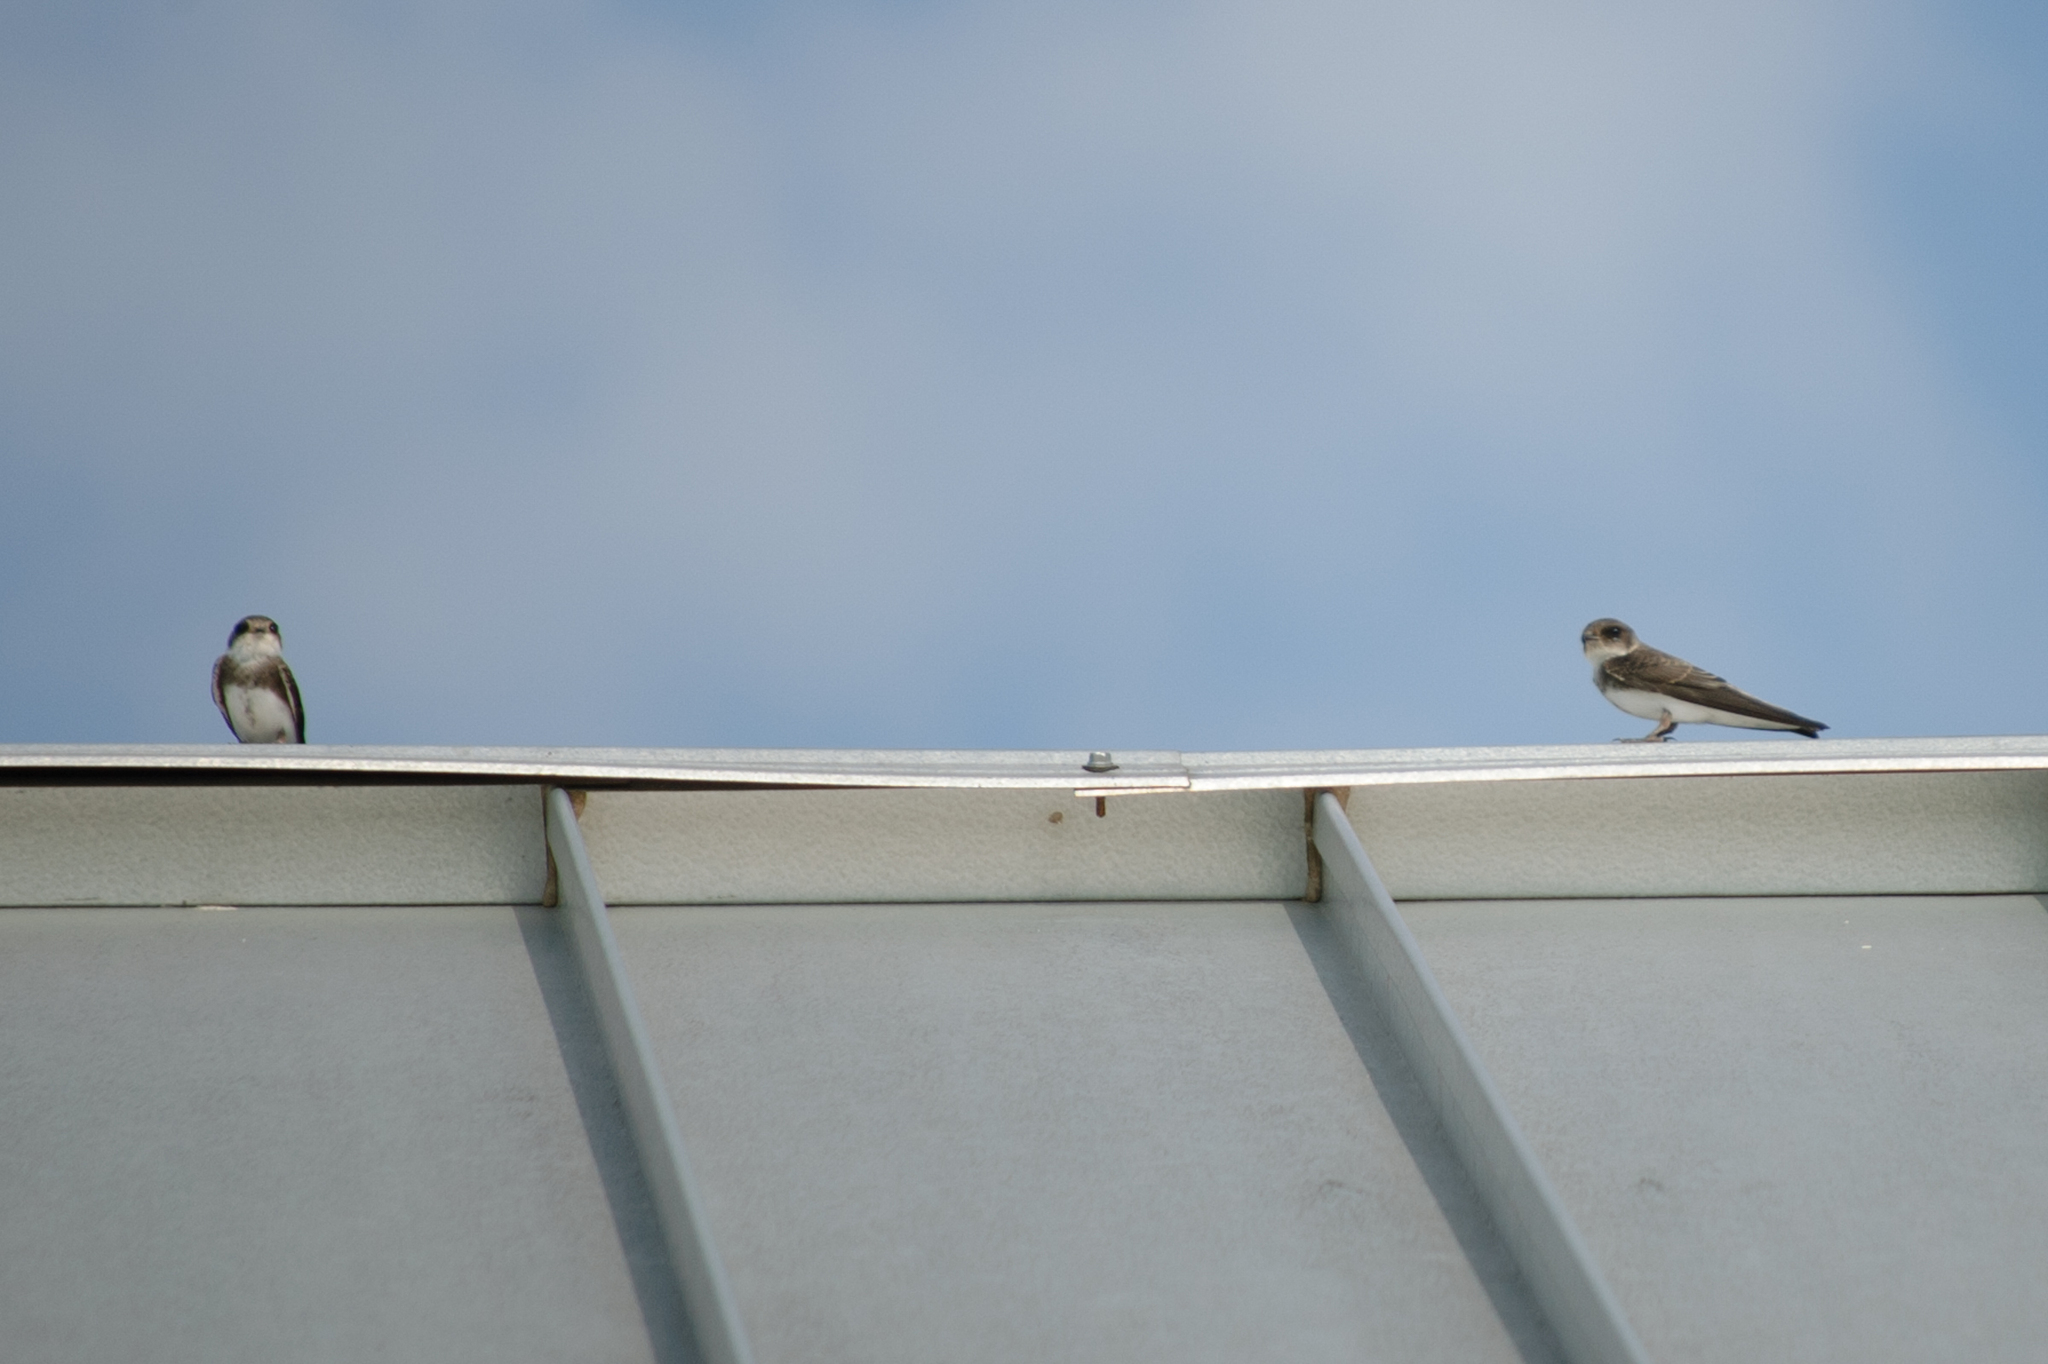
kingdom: Animalia
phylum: Chordata
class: Aves
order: Passeriformes
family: Hirundinidae
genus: Riparia
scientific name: Riparia riparia
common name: Sand martin
